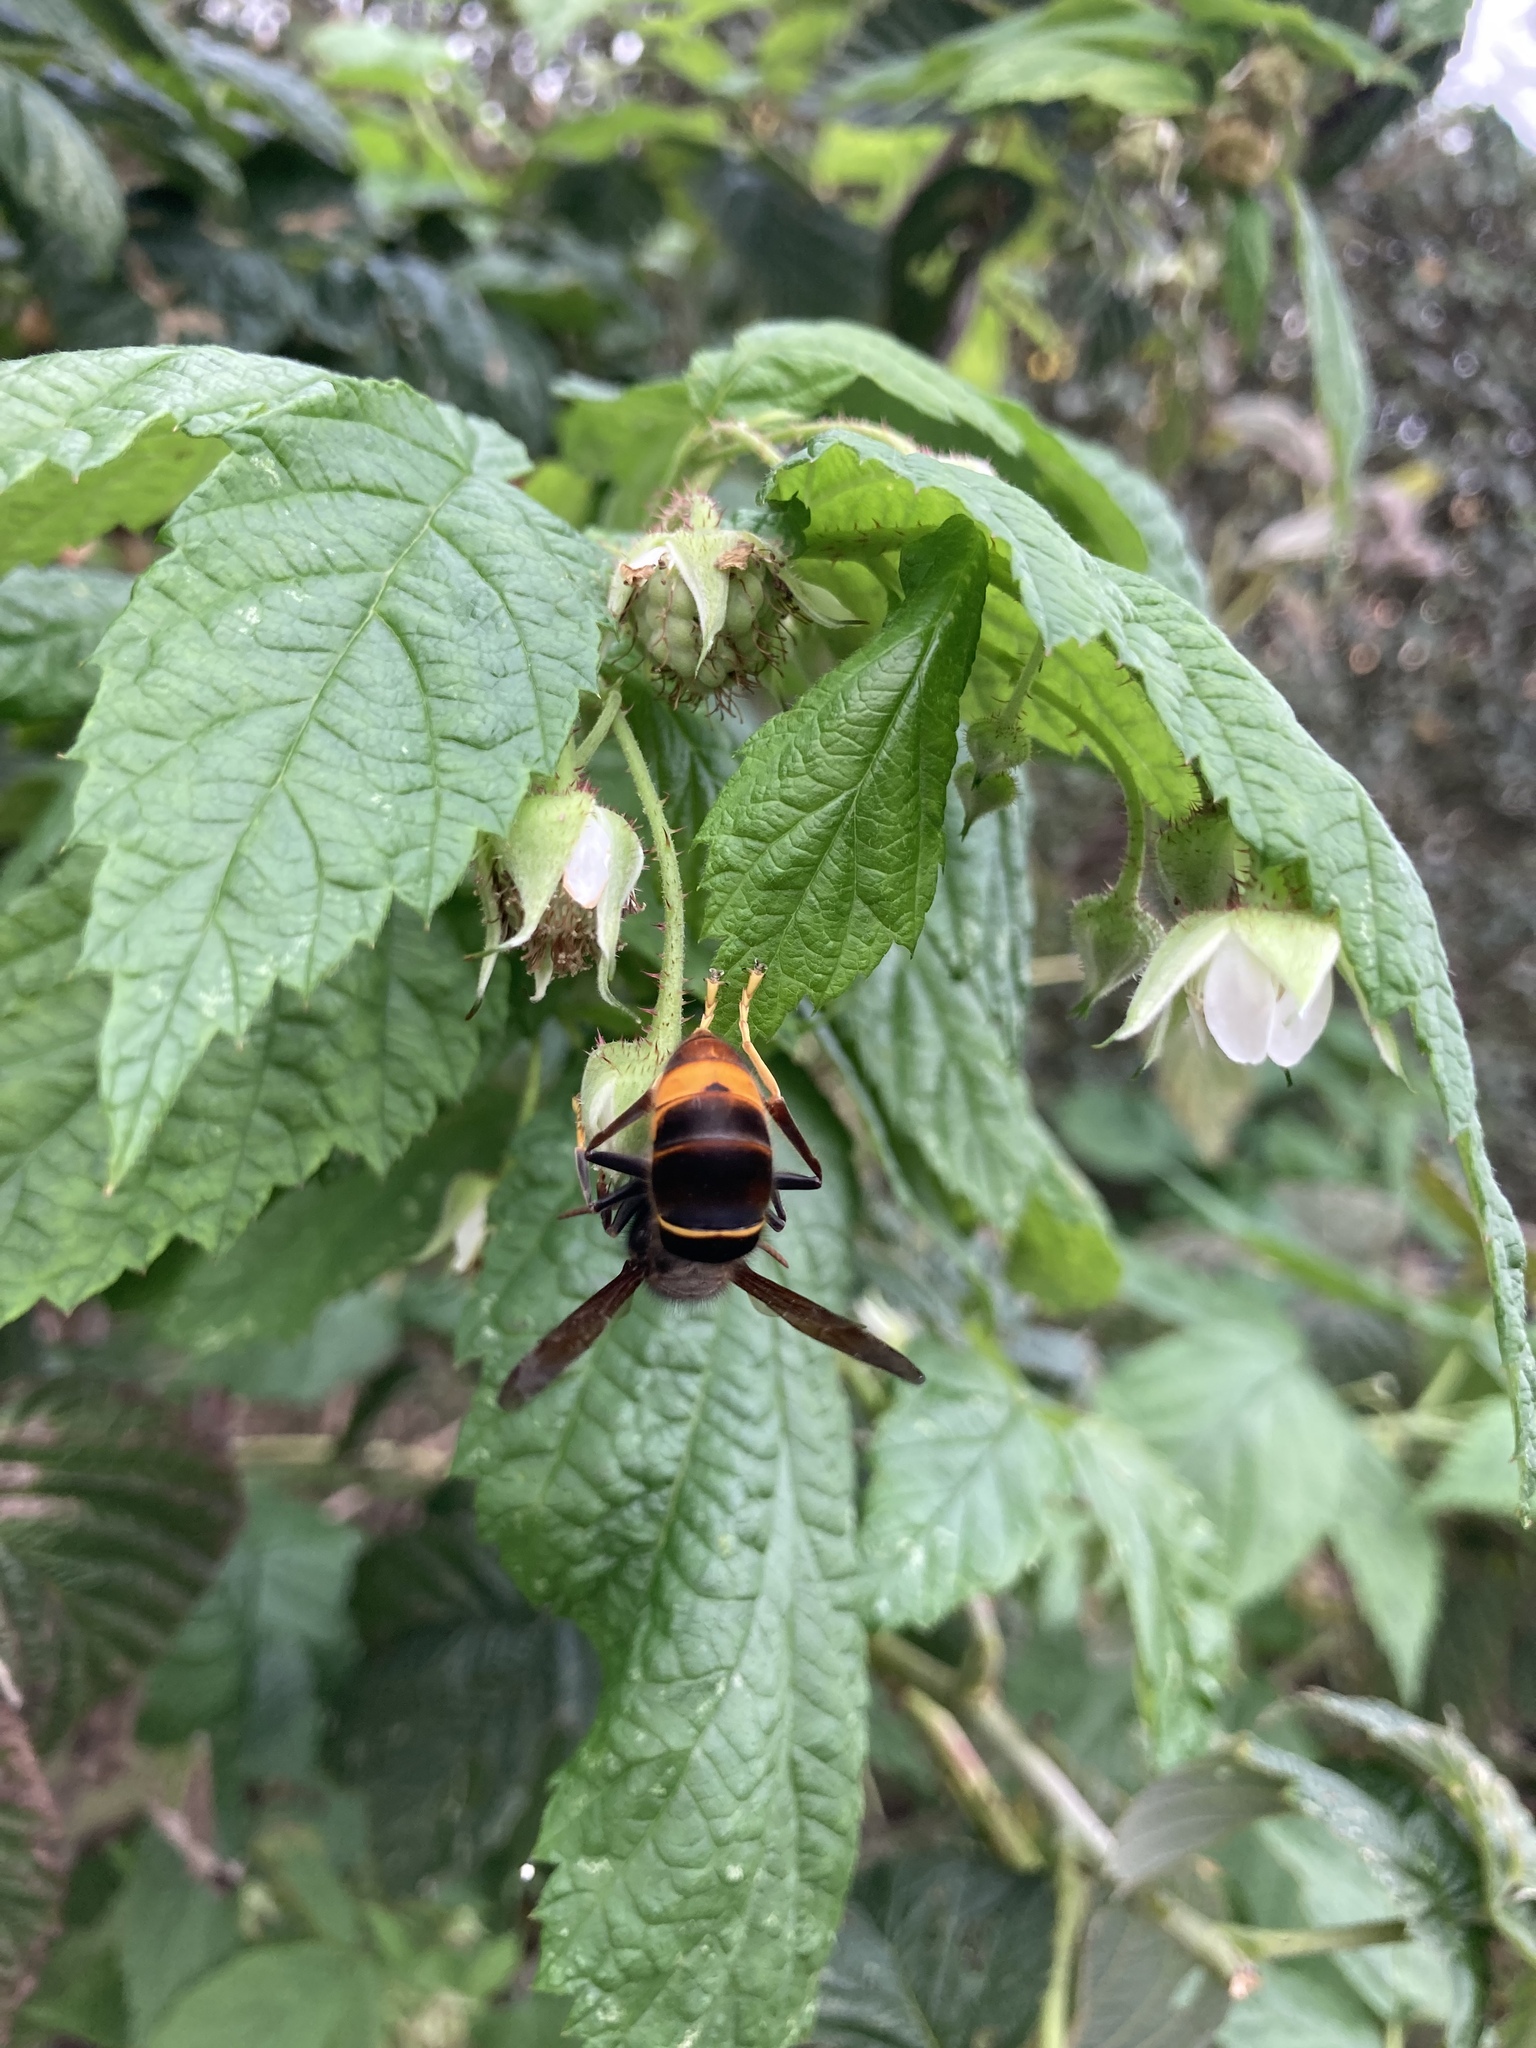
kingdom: Animalia
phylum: Arthropoda
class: Insecta
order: Hymenoptera
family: Vespidae
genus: Vespa
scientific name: Vespa velutina
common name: Asian hornet
